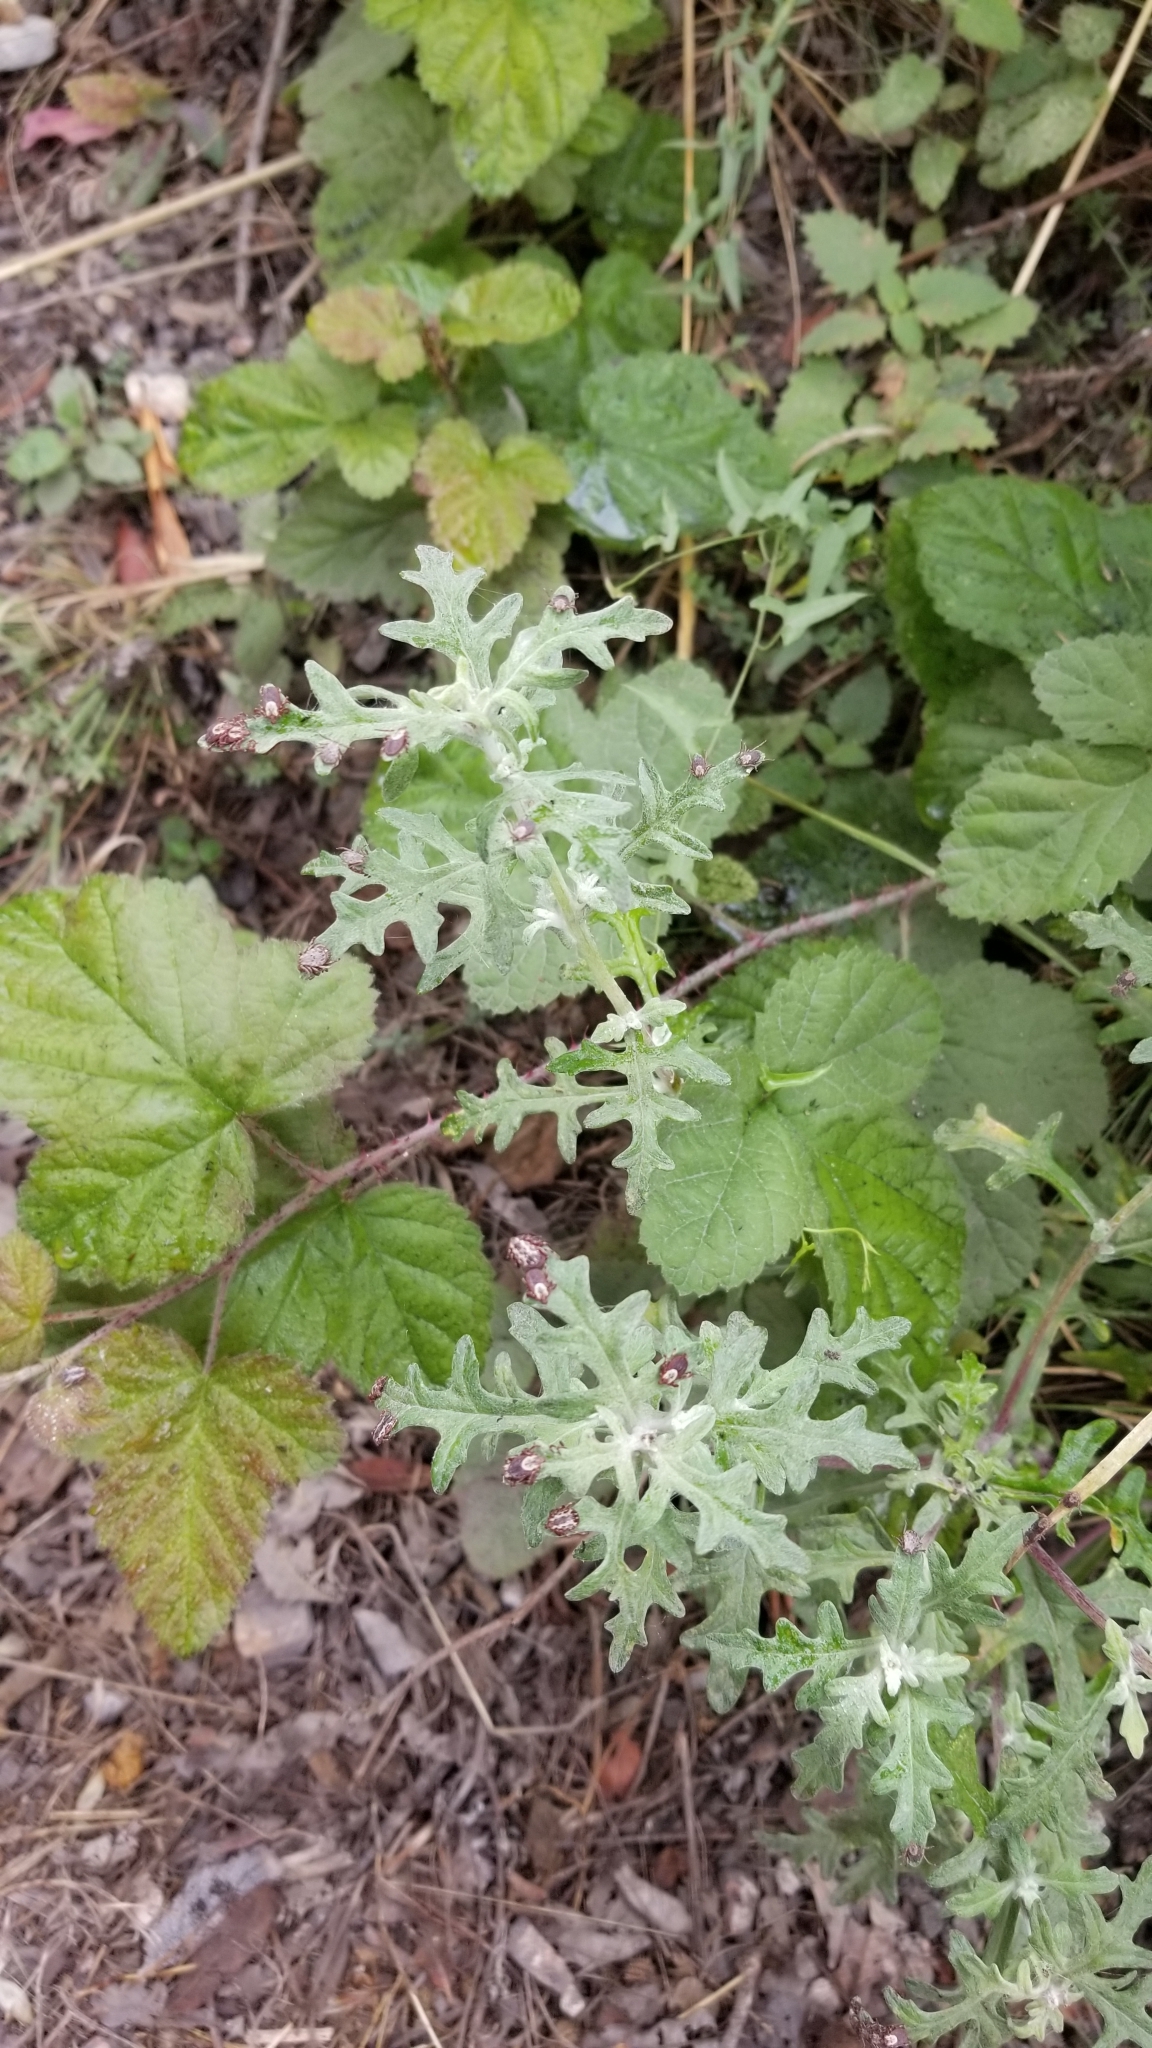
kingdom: Animalia
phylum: Arthropoda
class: Arachnida
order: Ixodida
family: Ixodidae
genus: Dermacentor
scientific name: Dermacentor variabilis
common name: American dog tick
